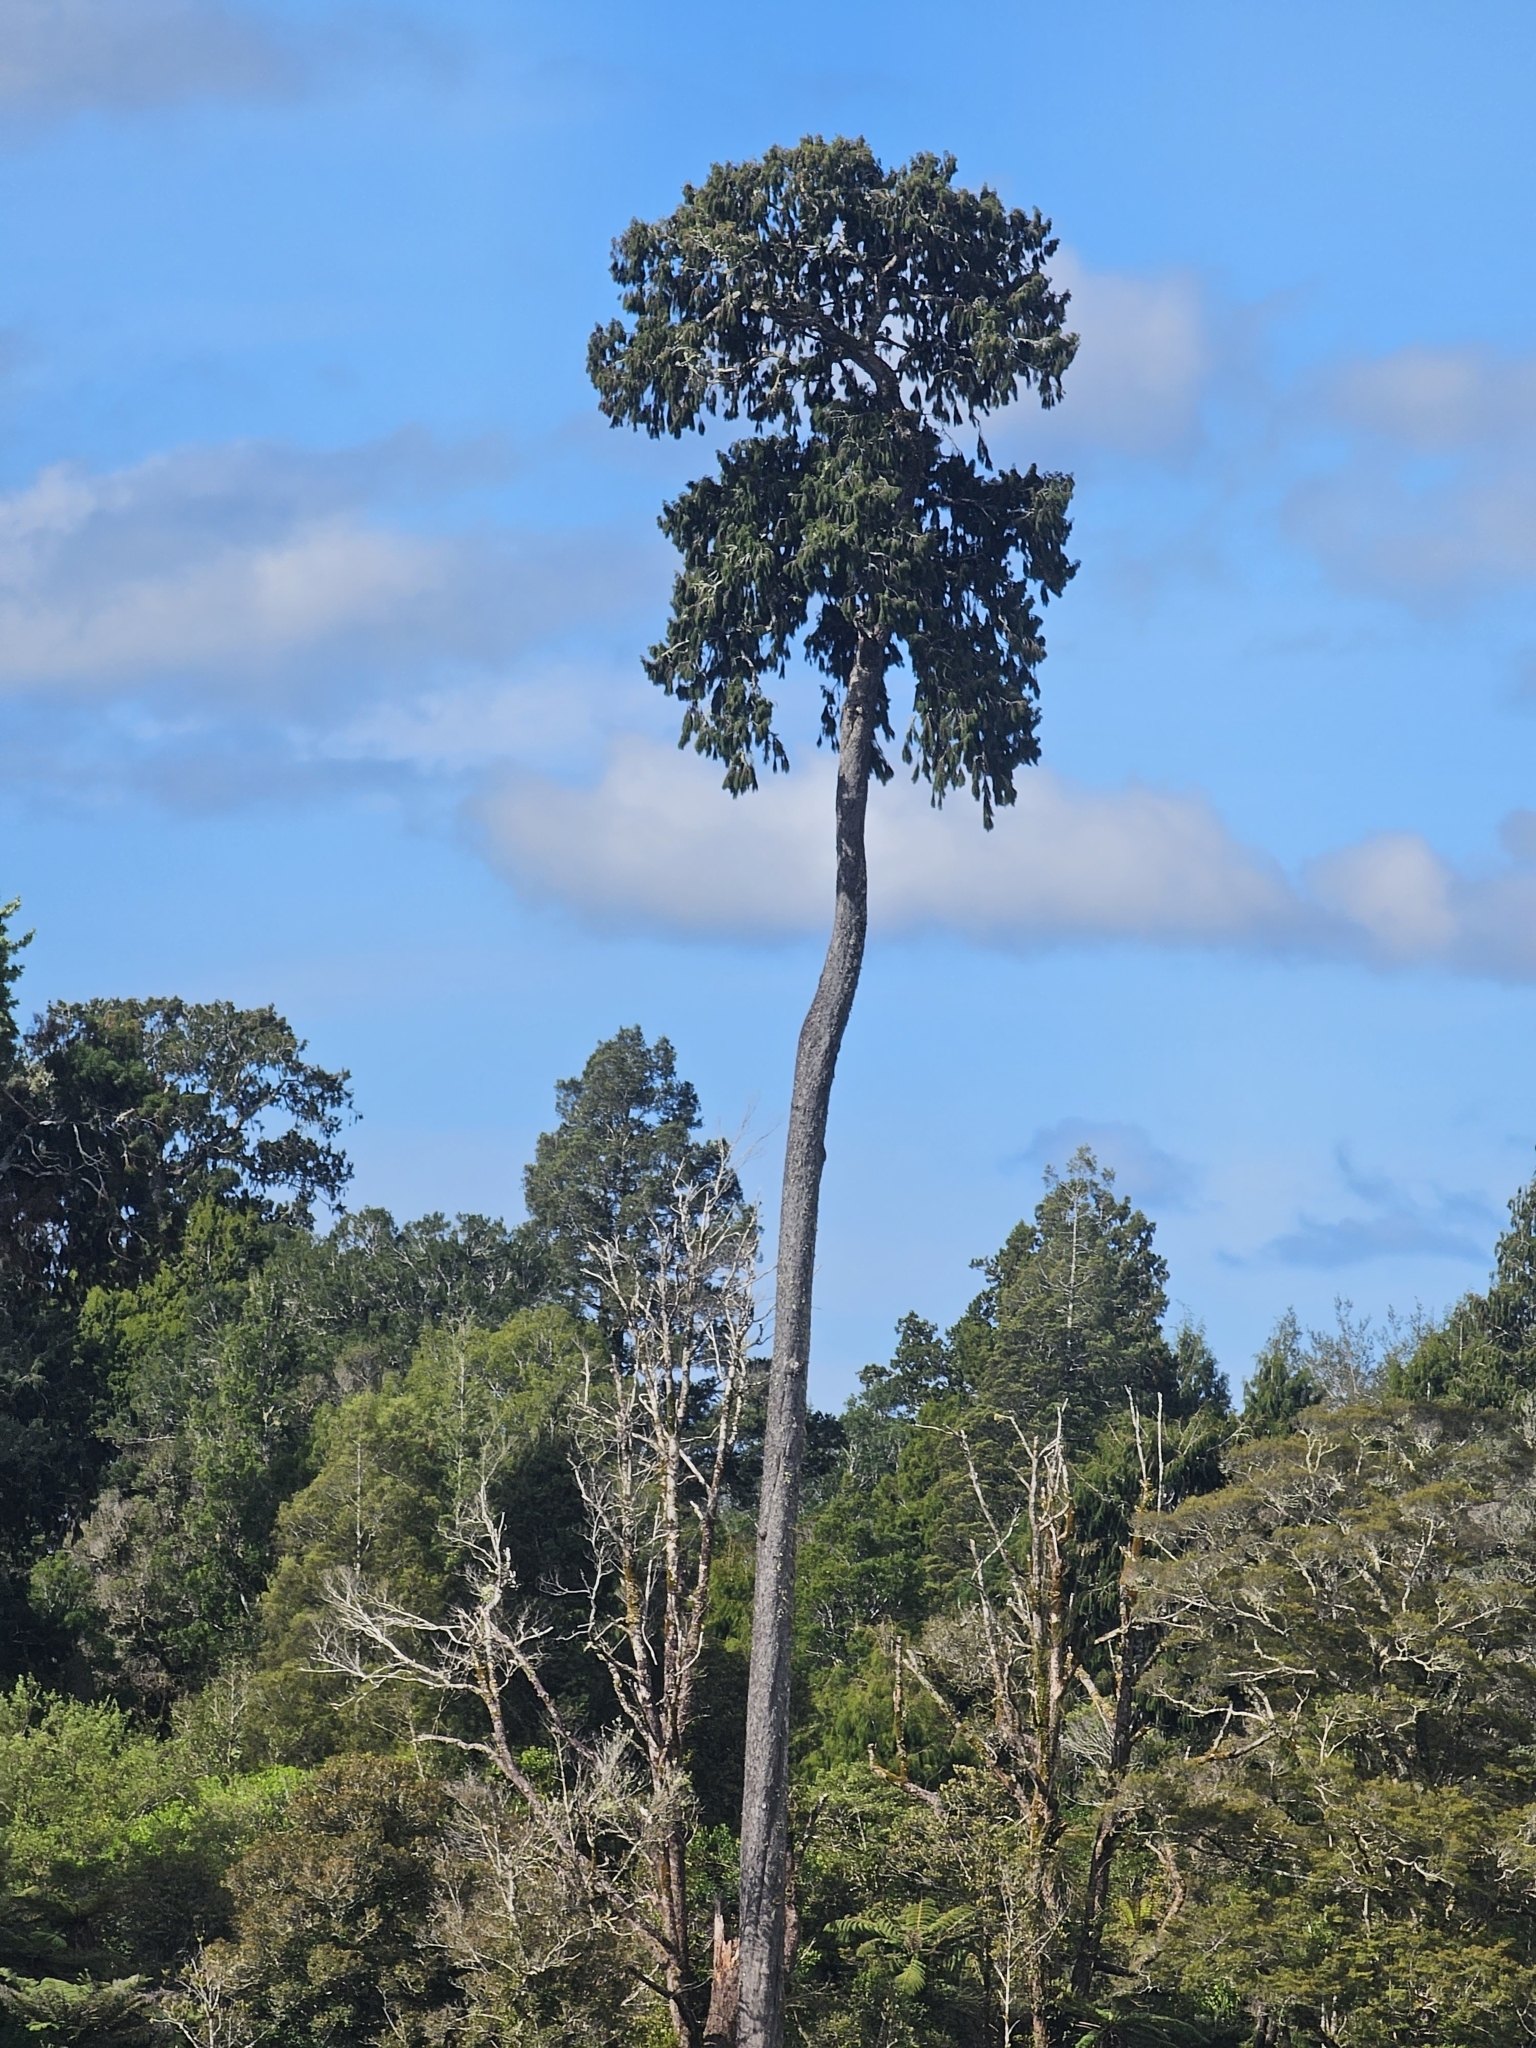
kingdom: Plantae
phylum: Tracheophyta
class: Pinopsida
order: Pinales
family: Podocarpaceae
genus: Dacrydium
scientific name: Dacrydium cupressinum
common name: Red pine
